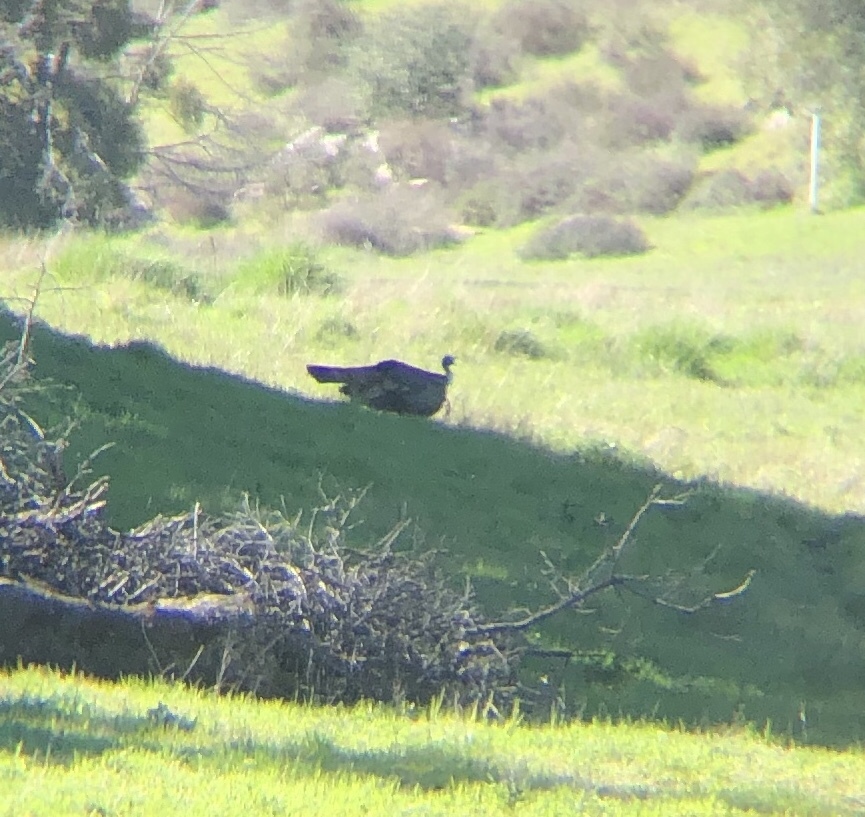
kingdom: Animalia
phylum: Chordata
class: Aves
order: Galliformes
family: Phasianidae
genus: Meleagris
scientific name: Meleagris gallopavo
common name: Wild turkey
